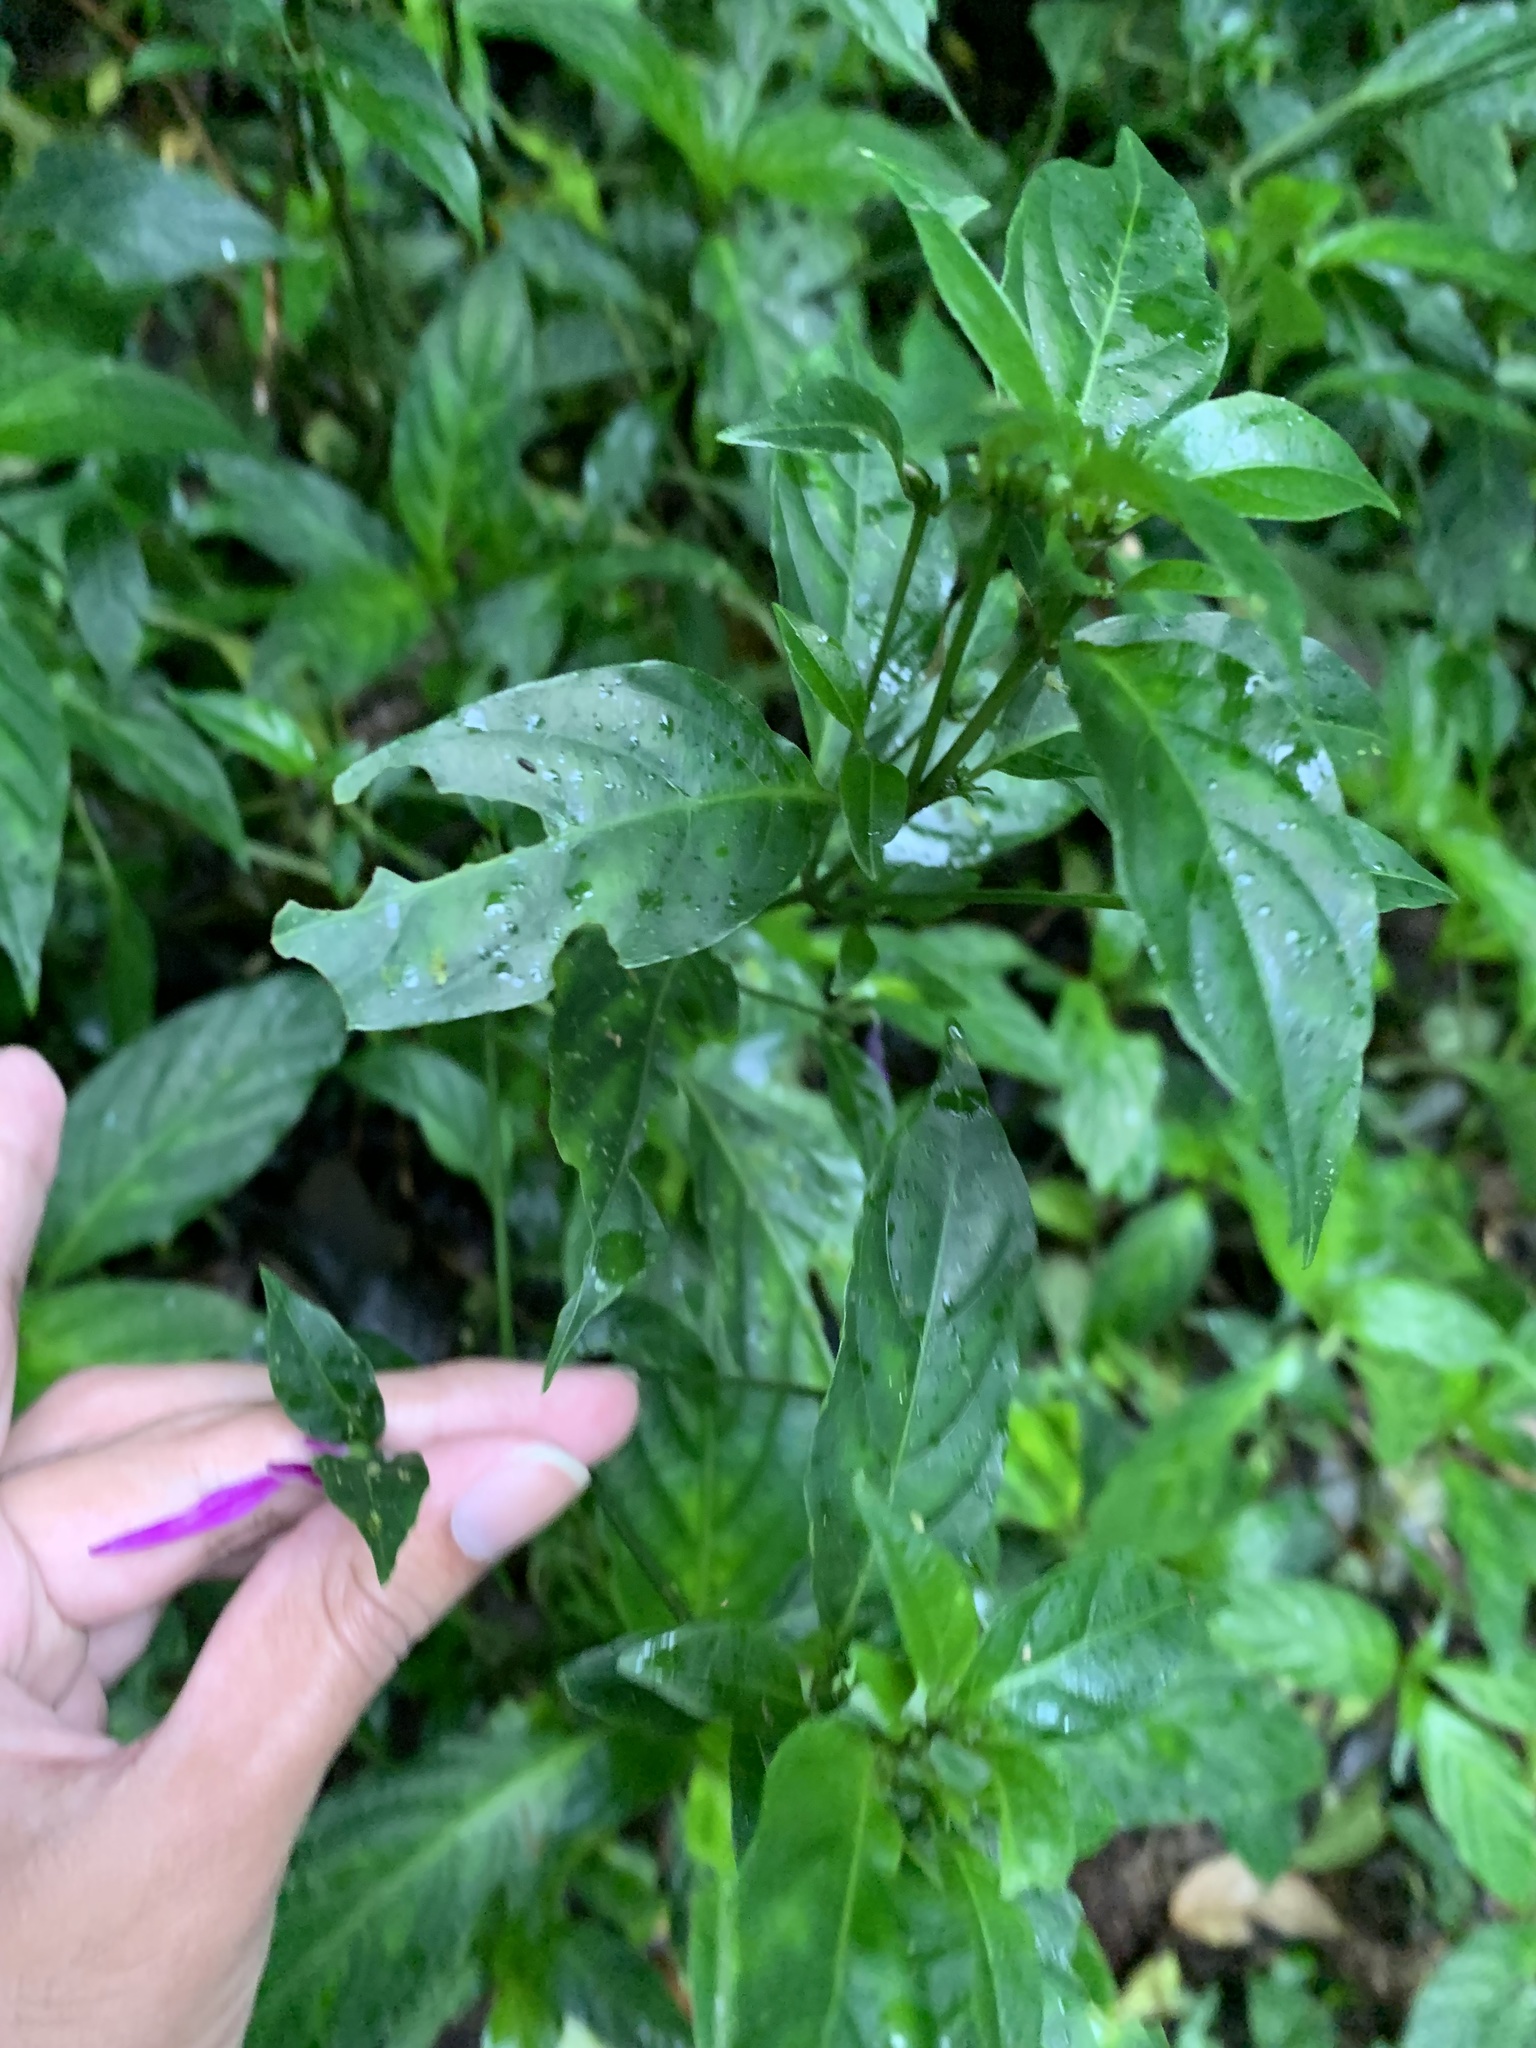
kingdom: Plantae
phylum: Tracheophyta
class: Magnoliopsida
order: Lamiales
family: Acanthaceae
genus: Dicliptera
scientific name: Dicliptera iopus
